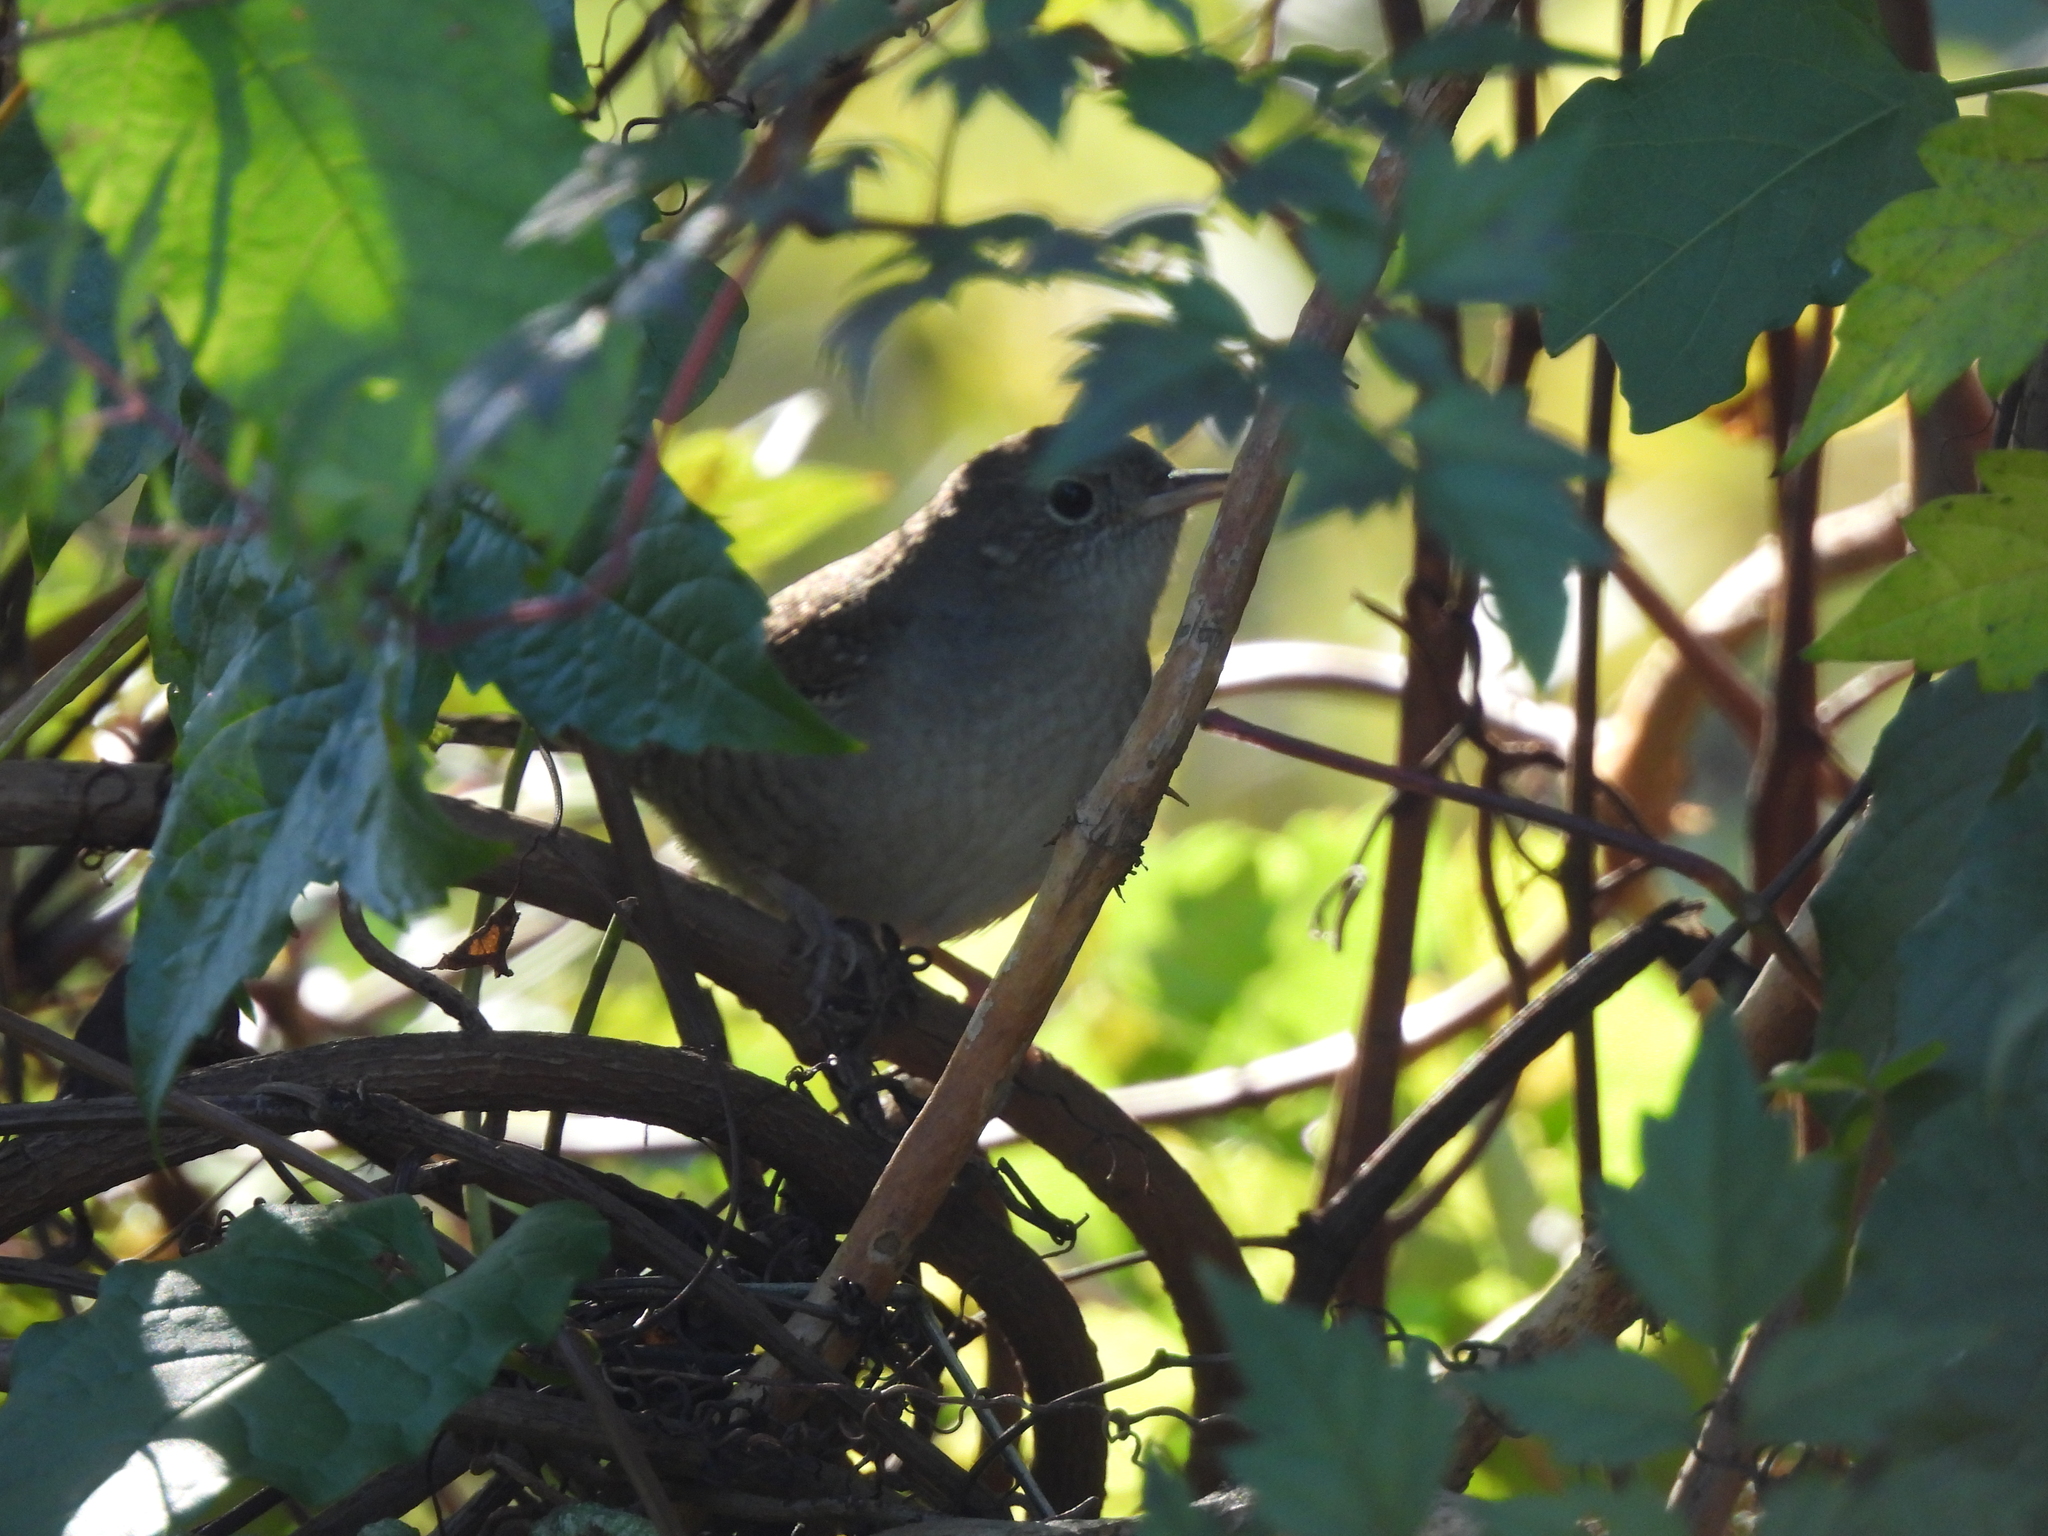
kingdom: Animalia
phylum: Chordata
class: Aves
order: Passeriformes
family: Troglodytidae
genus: Troglodytes
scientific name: Troglodytes aedon
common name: House wren
